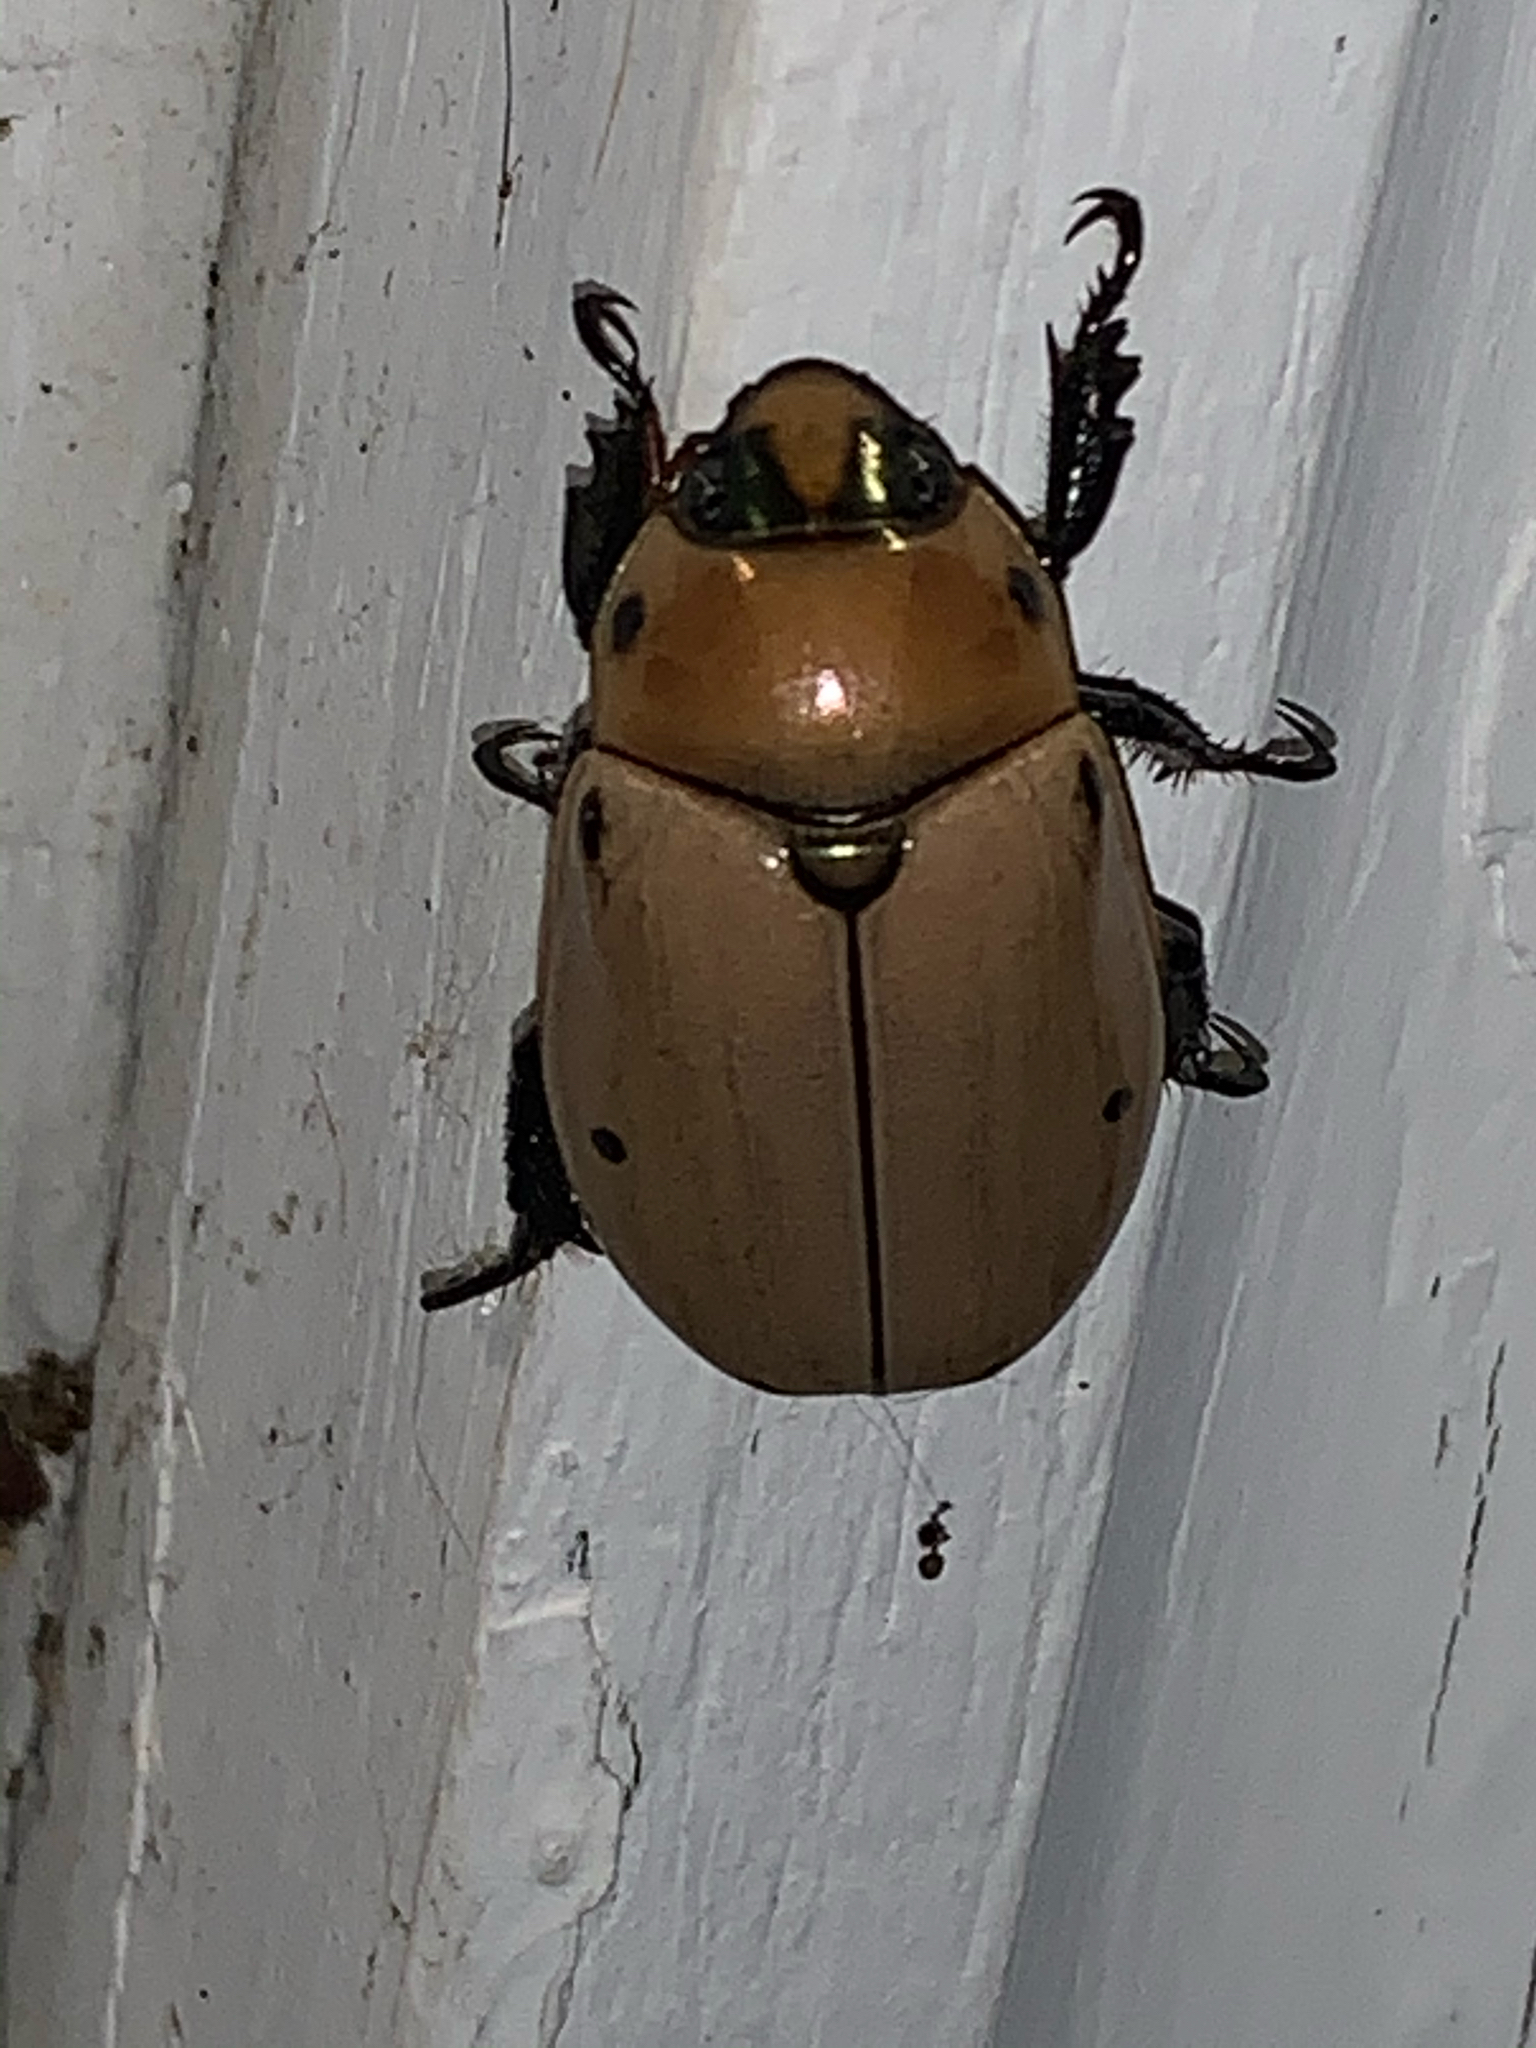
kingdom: Animalia
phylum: Arthropoda
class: Insecta
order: Coleoptera
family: Scarabaeidae
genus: Pelidnota
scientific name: Pelidnota punctata
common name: Grapevine beetle
